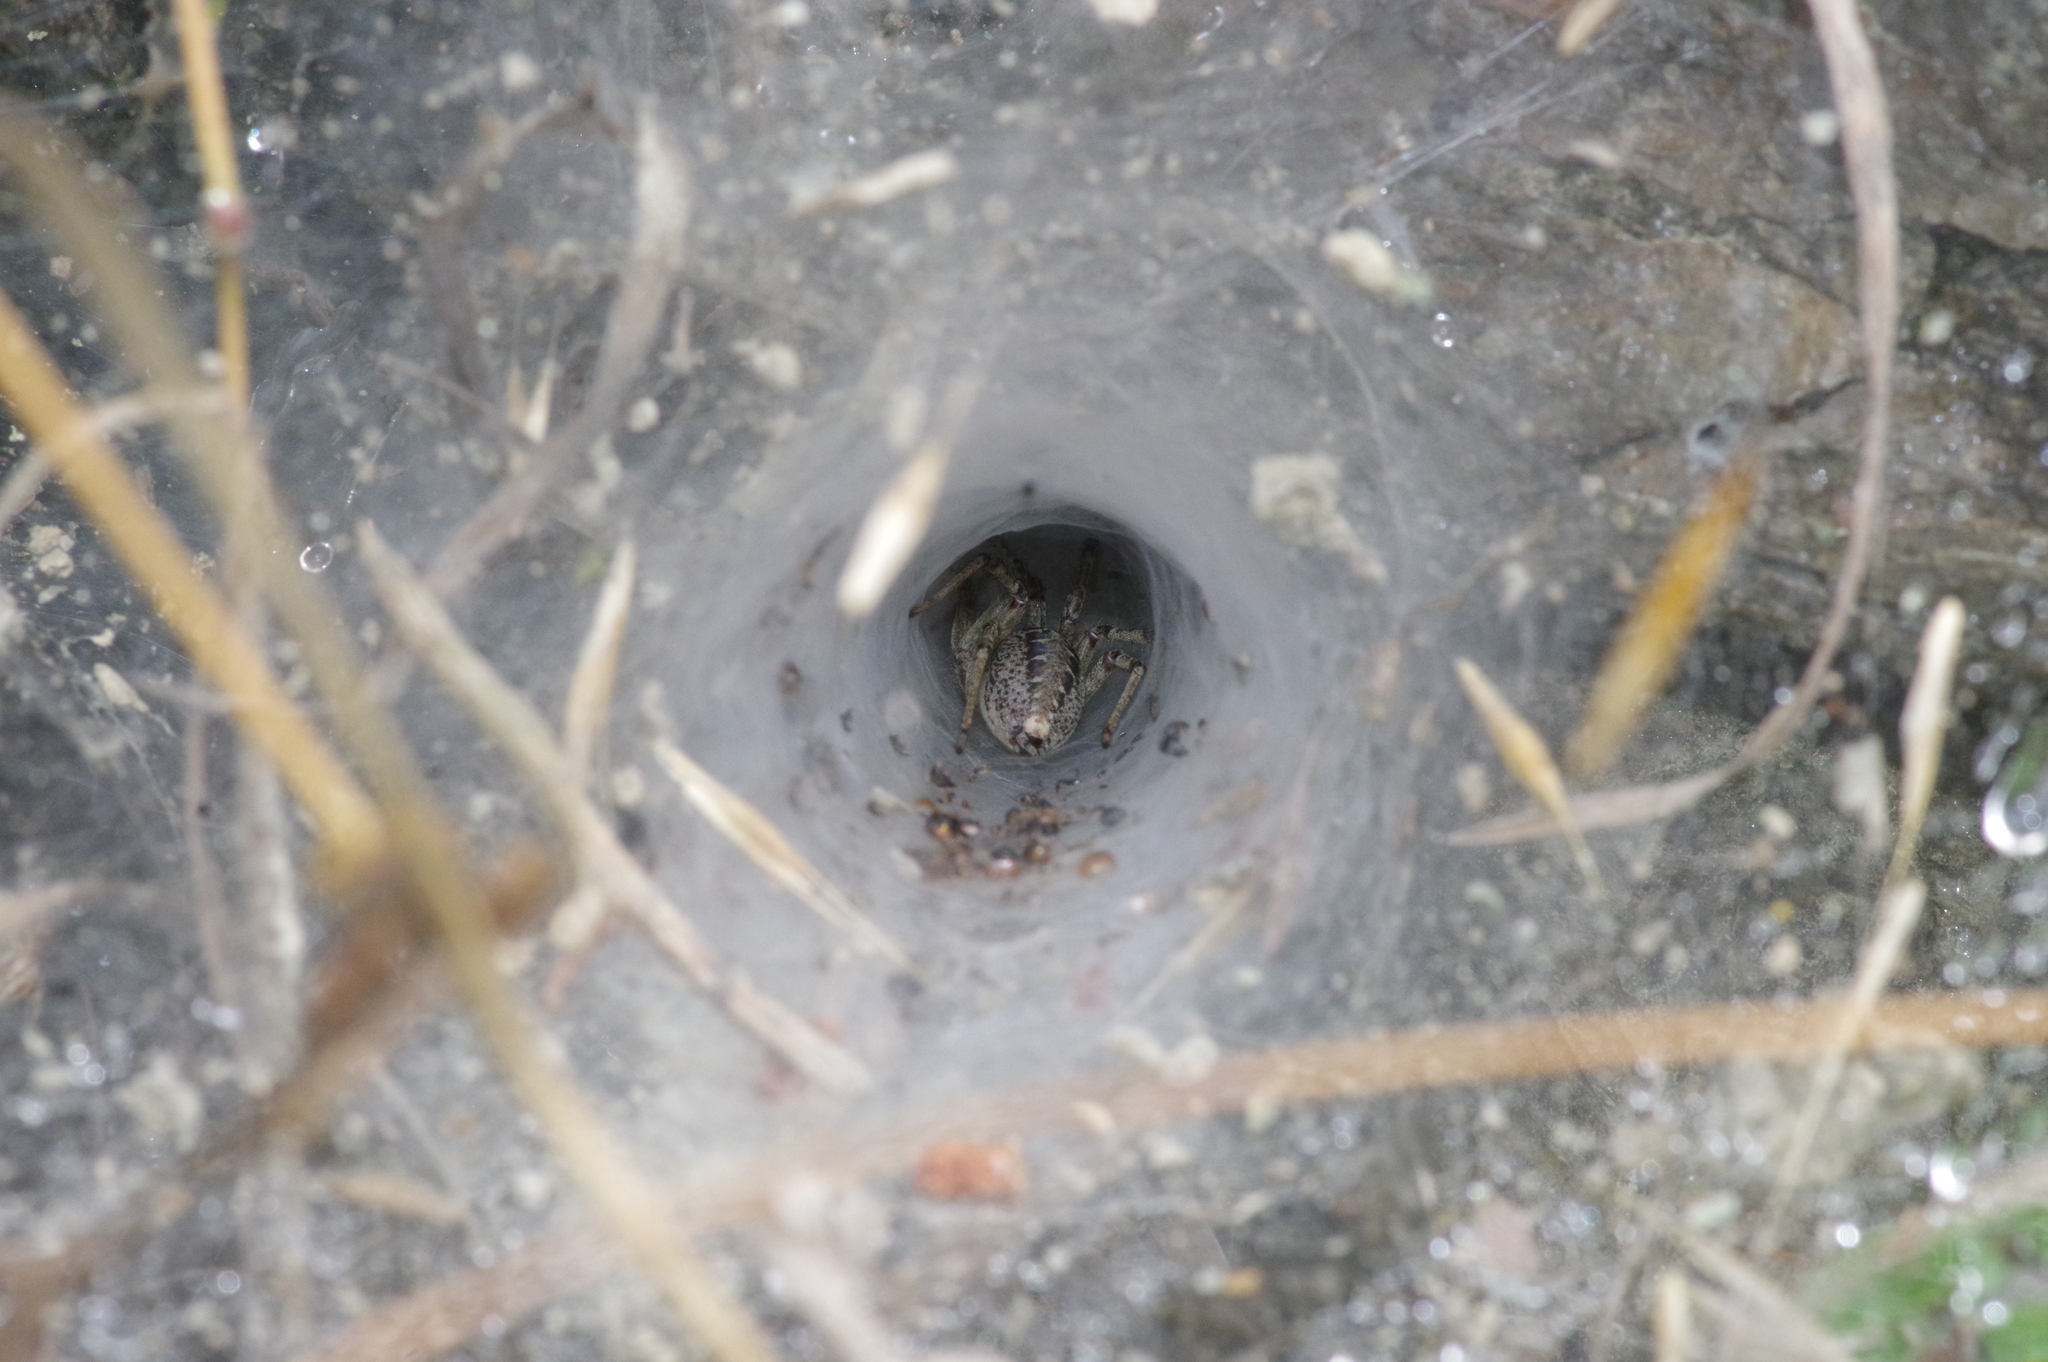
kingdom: Animalia
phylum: Arthropoda
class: Arachnida
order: Araneae
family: Agelenidae
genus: Agelena
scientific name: Agelena silvatica
